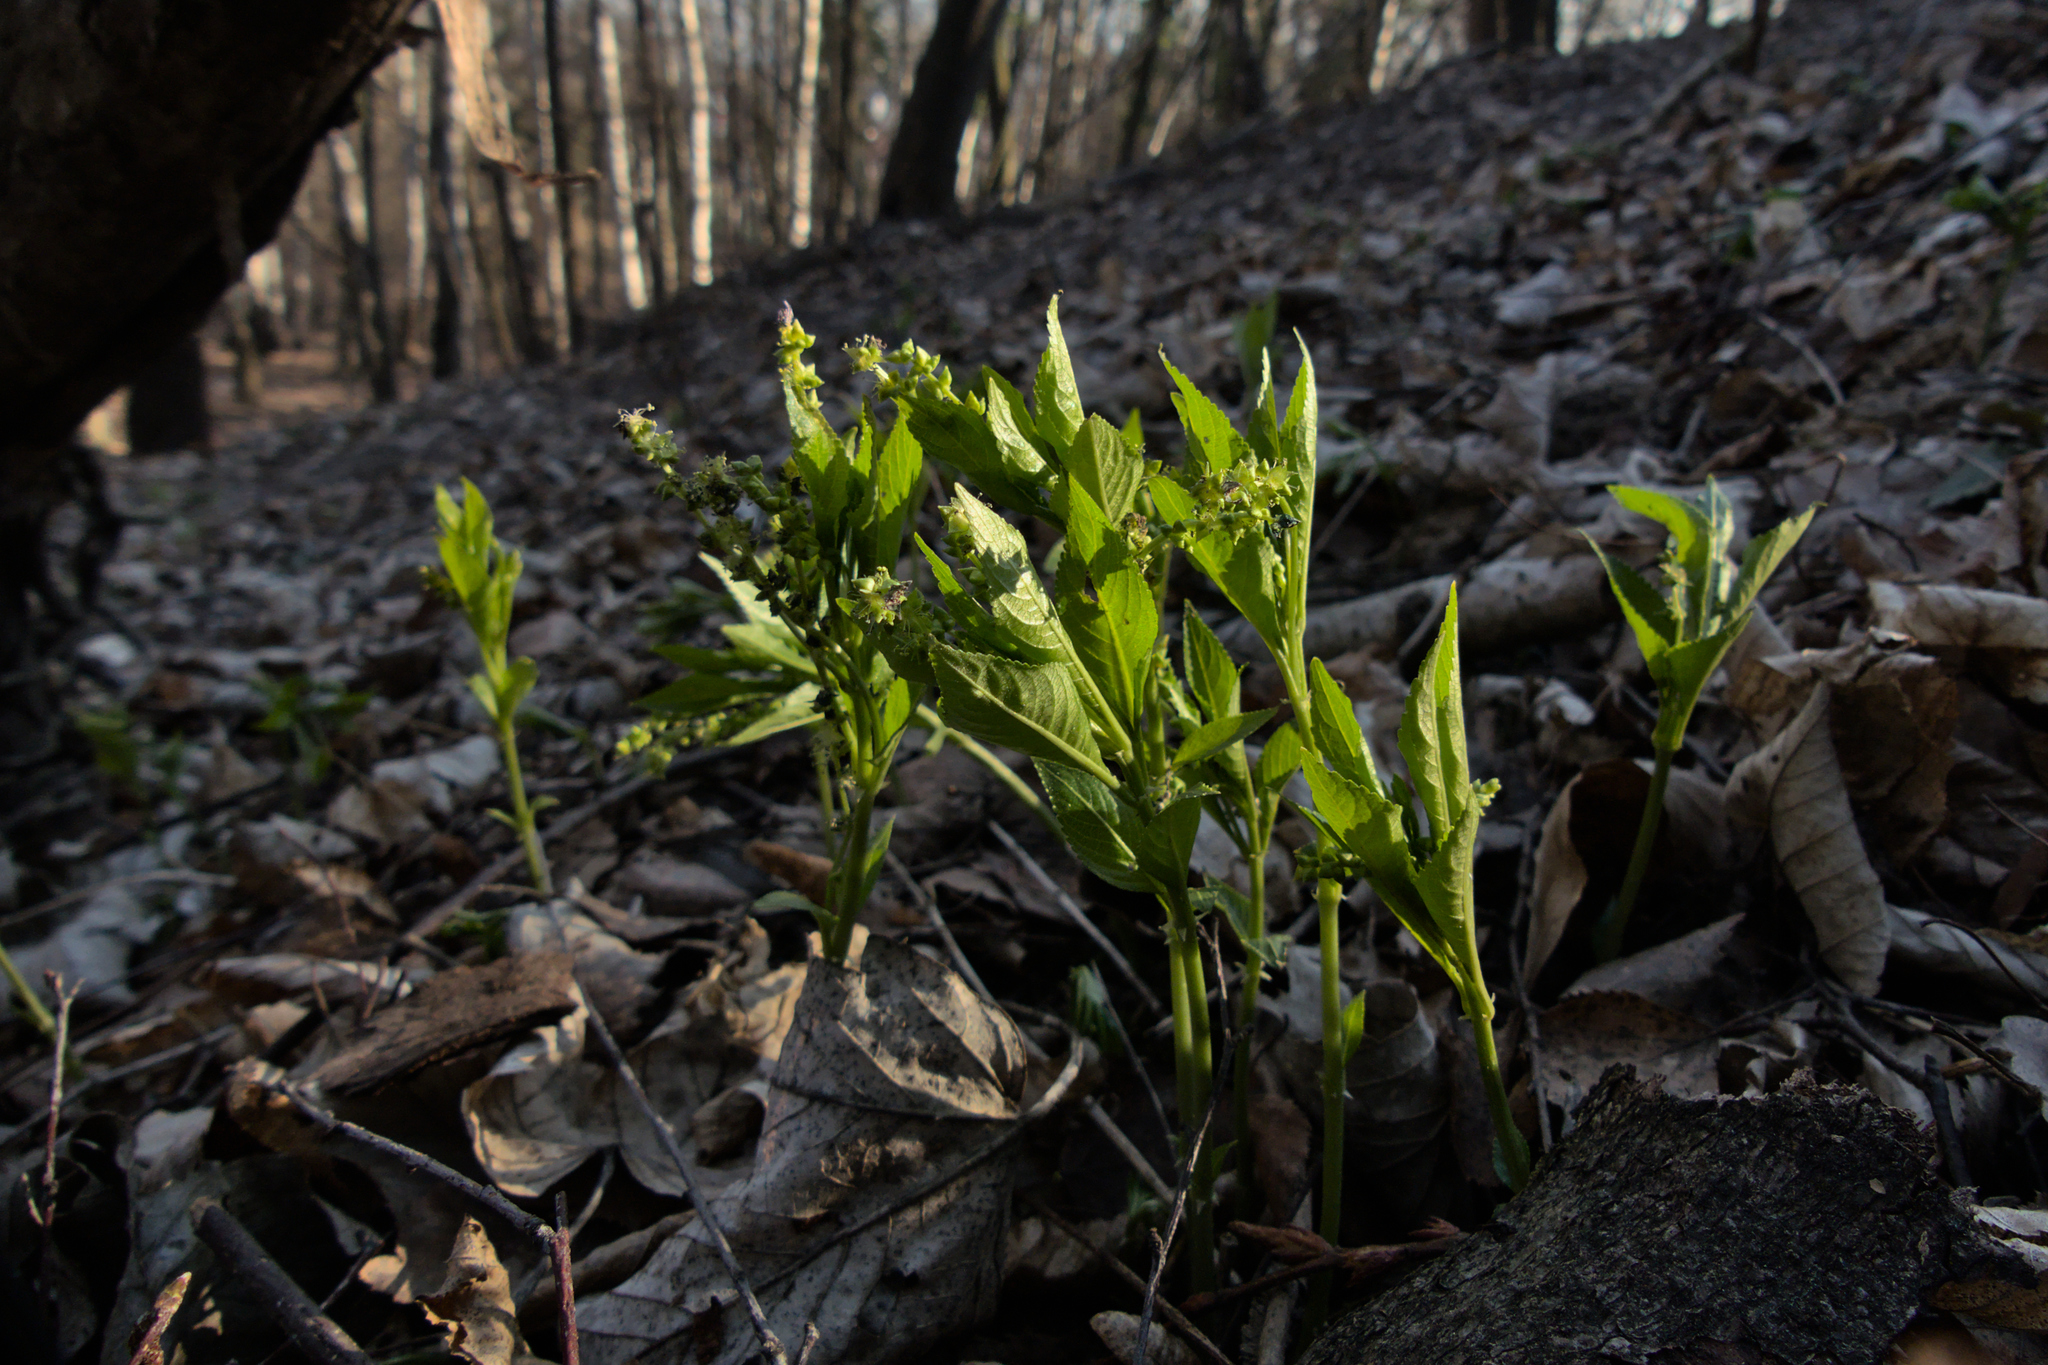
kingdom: Plantae
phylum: Tracheophyta
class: Magnoliopsida
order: Malpighiales
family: Euphorbiaceae
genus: Mercurialis
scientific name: Mercurialis perennis
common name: Dog mercury
